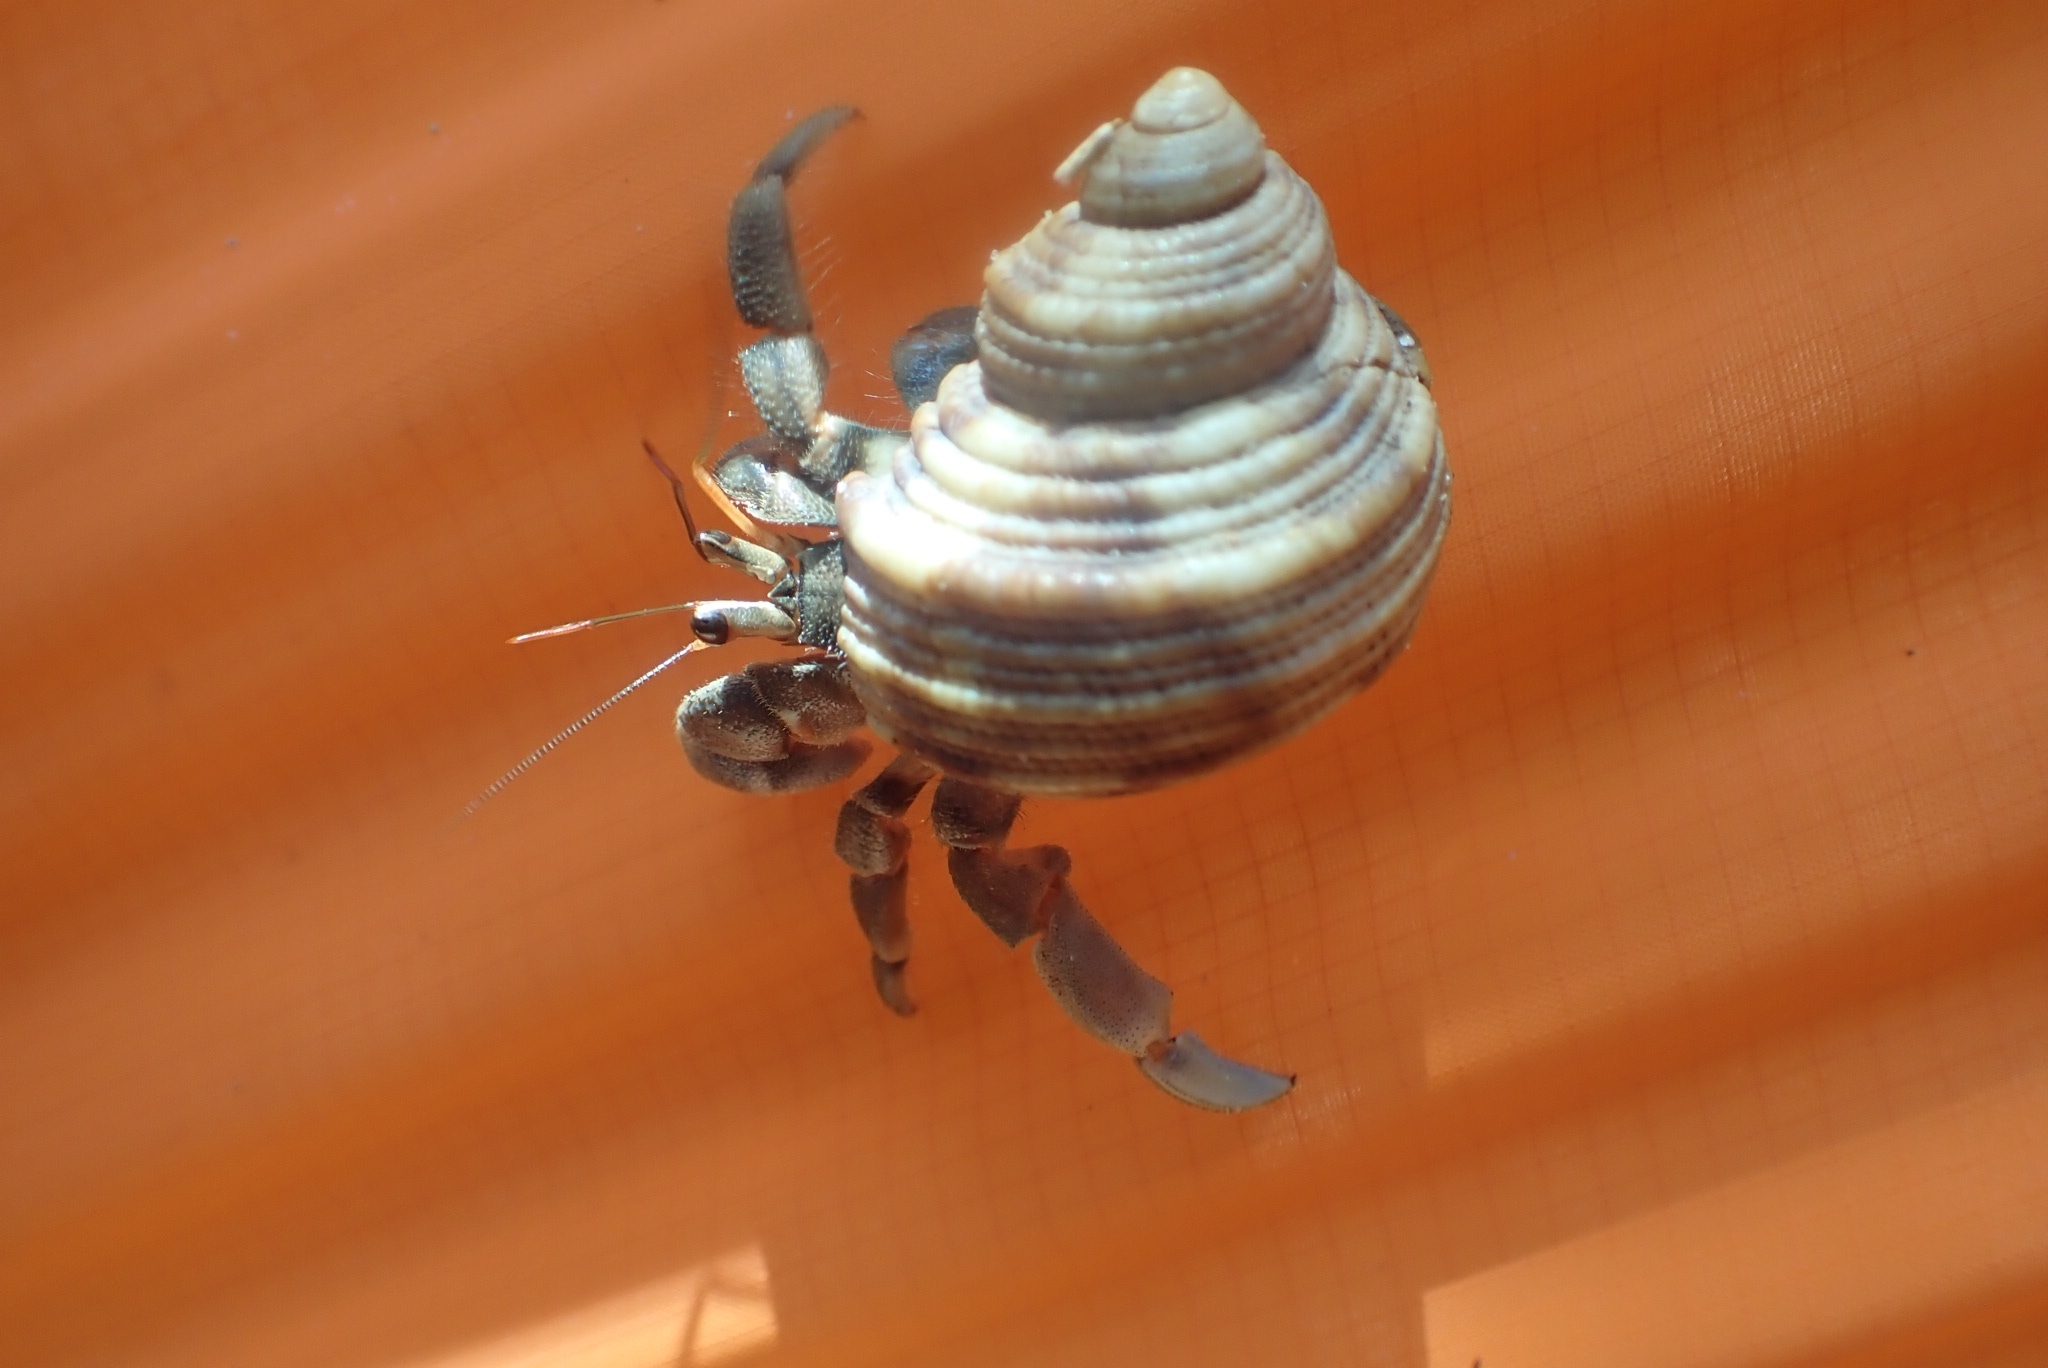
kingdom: Animalia
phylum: Arthropoda
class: Malacostraca
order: Decapoda
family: Coenobitidae
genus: Coenobita
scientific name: Coenobita rugosus
